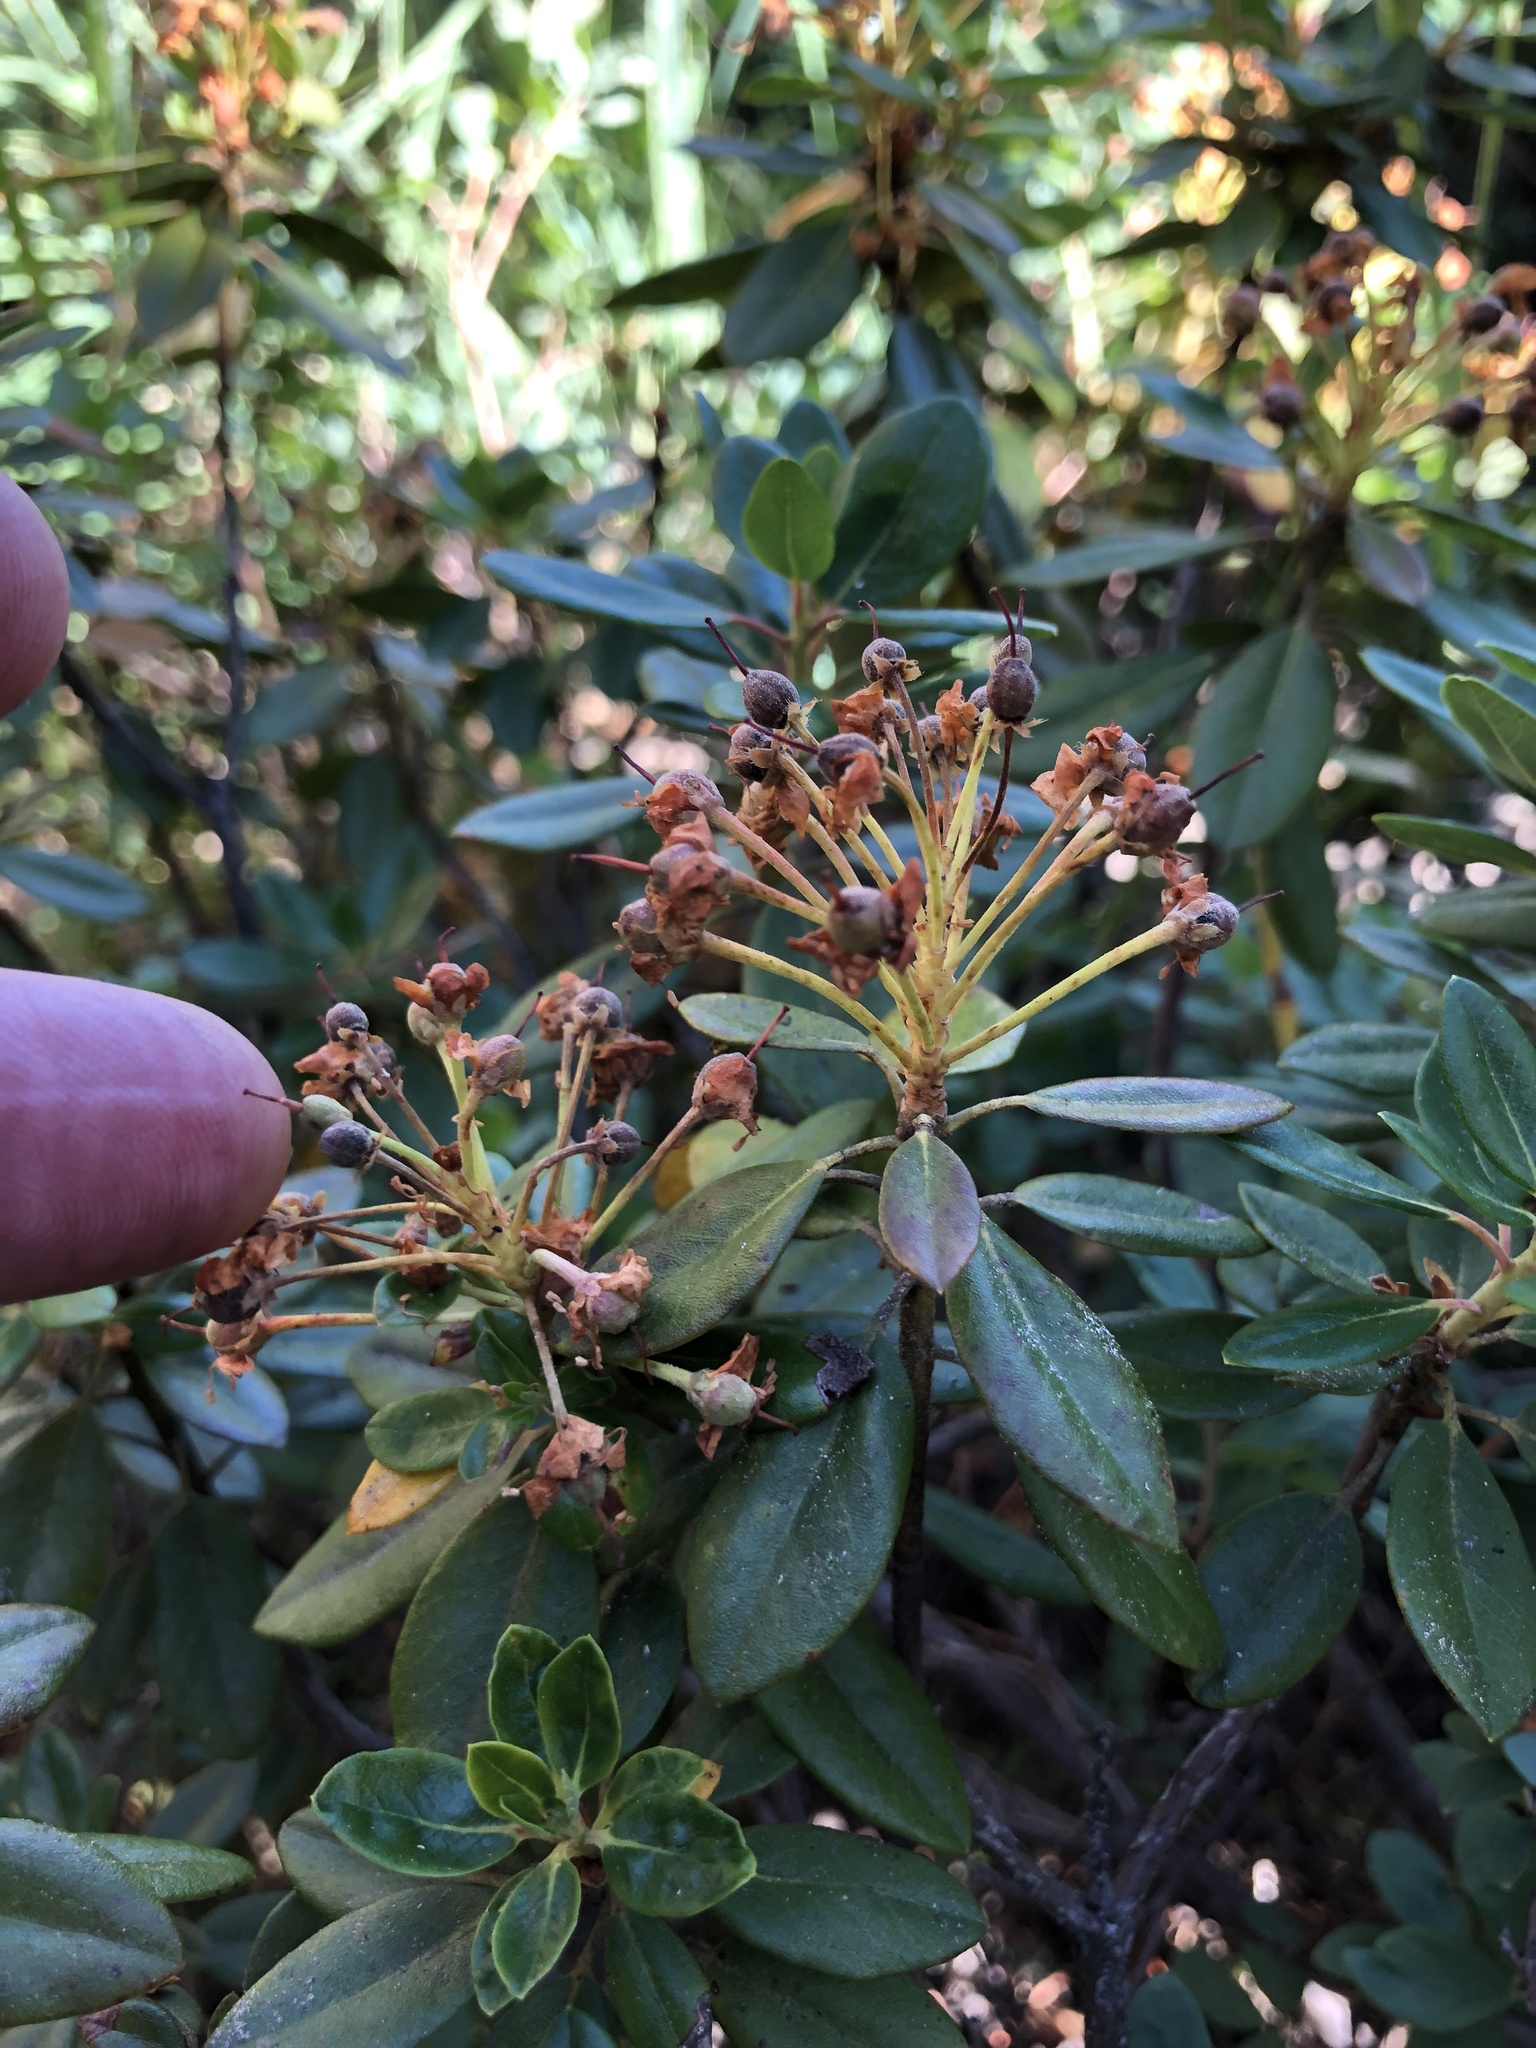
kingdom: Plantae
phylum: Tracheophyta
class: Magnoliopsida
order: Ericales
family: Ericaceae
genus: Rhododendron
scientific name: Rhododendron columbianum
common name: Western labrador tea
